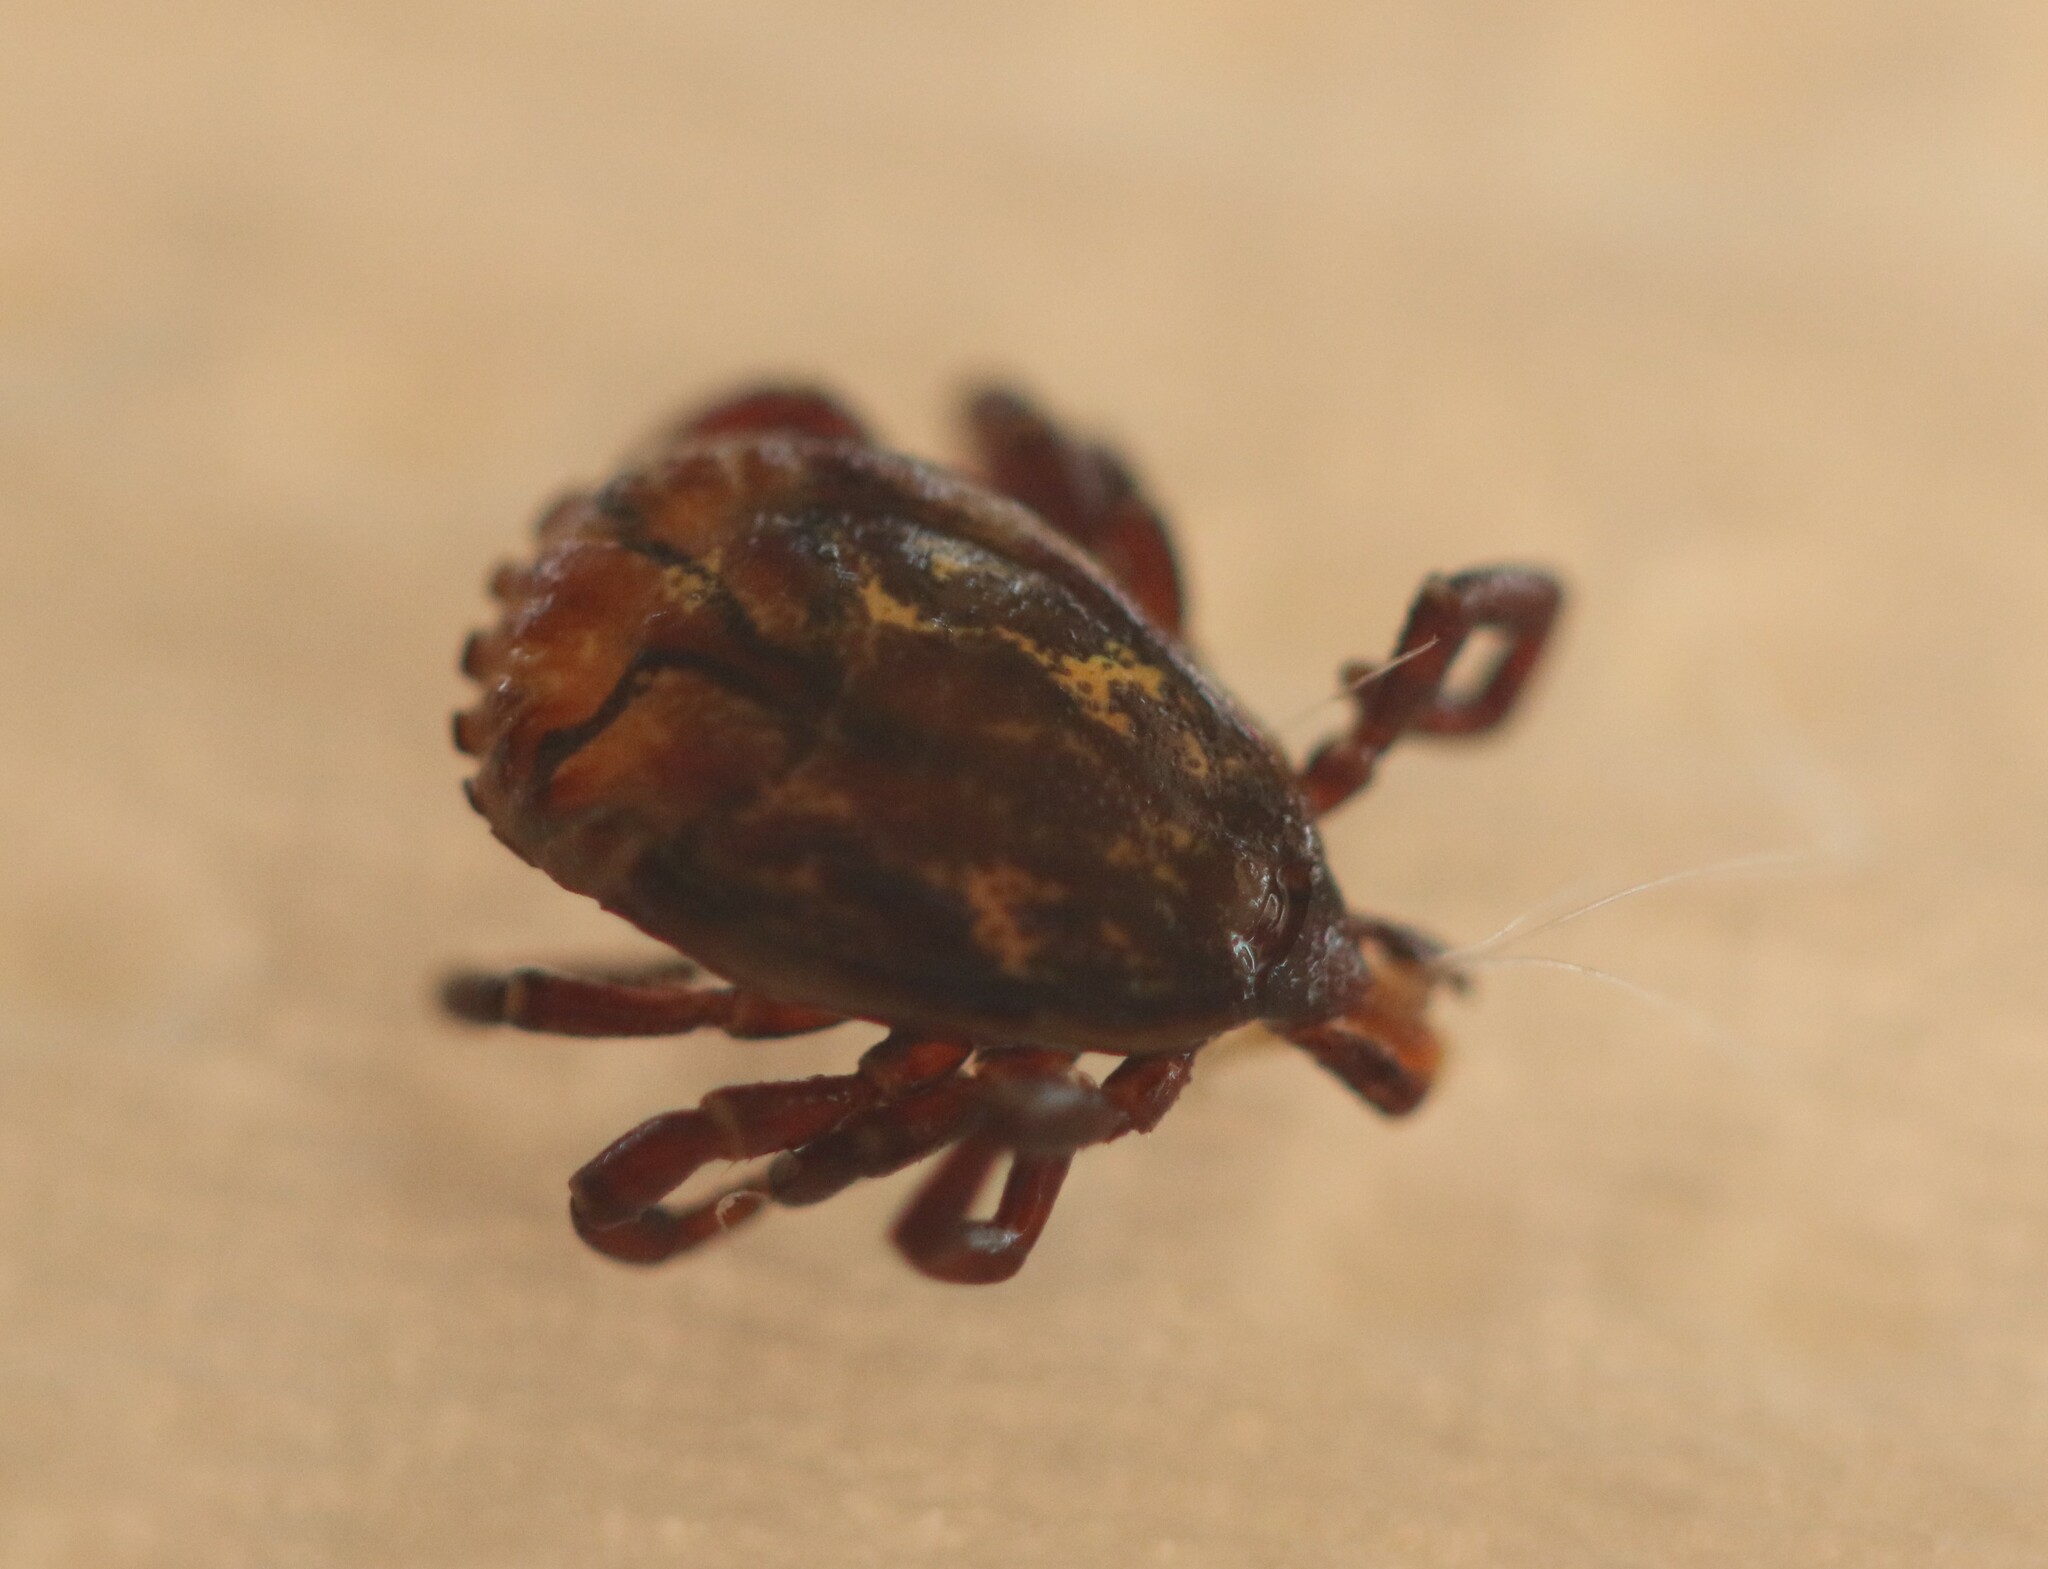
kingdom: Animalia
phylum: Arthropoda
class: Arachnida
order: Ixodida
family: Ixodidae
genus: Amblyomma
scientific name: Amblyomma ovale
